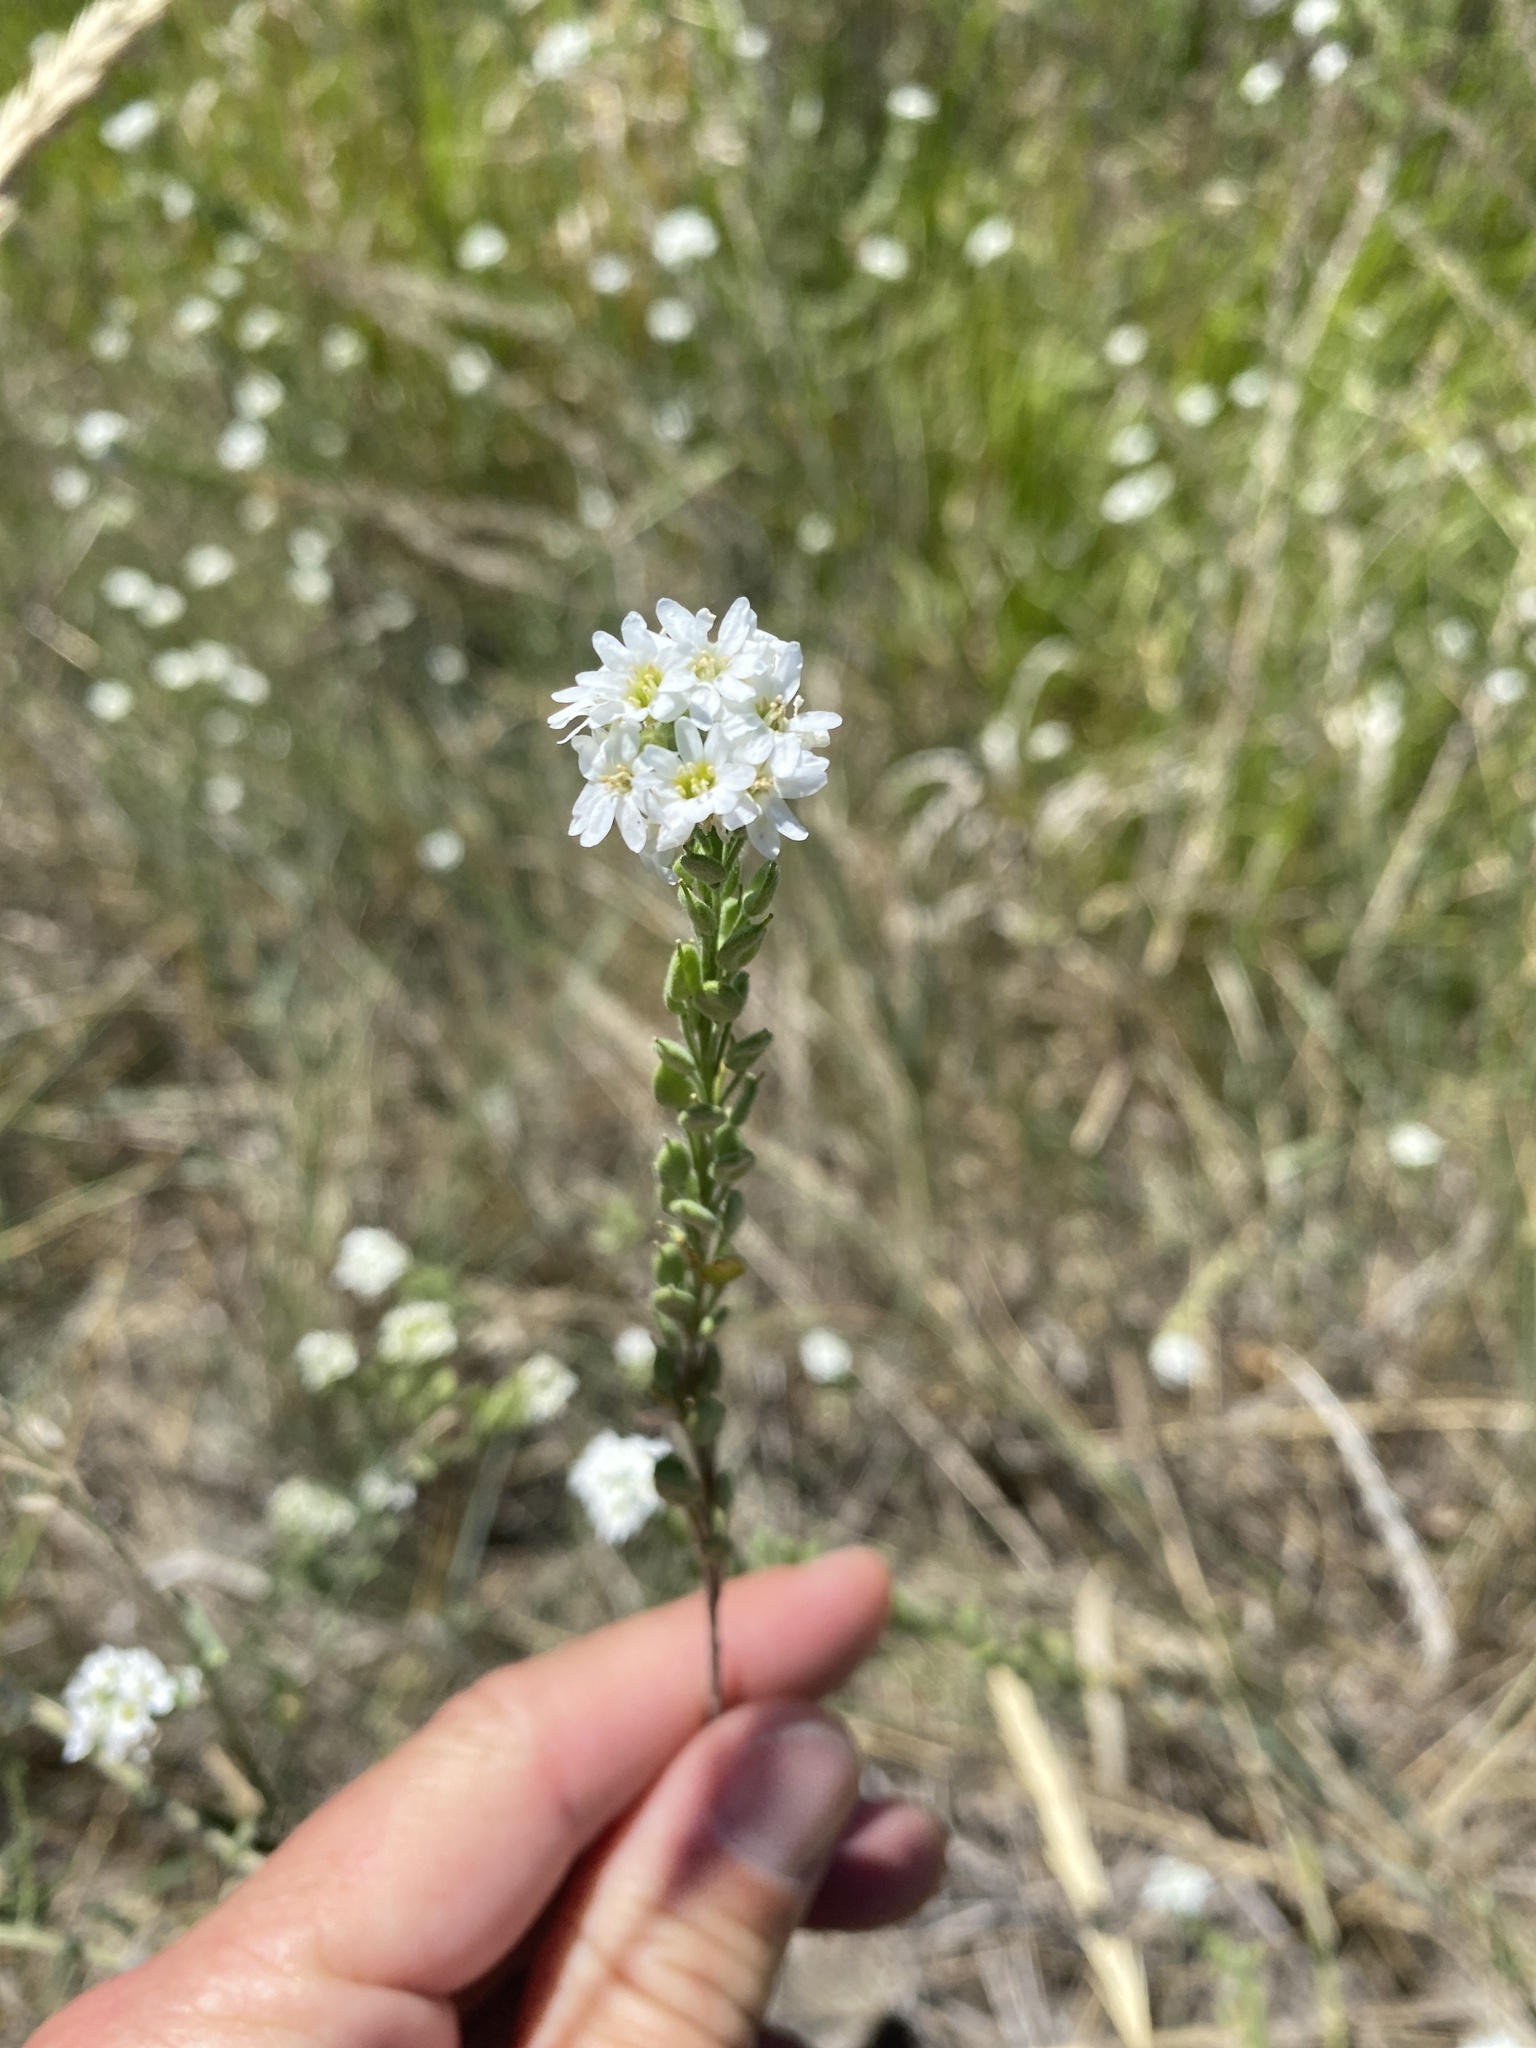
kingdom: Plantae
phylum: Tracheophyta
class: Magnoliopsida
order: Brassicales
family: Brassicaceae
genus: Berteroa
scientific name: Berteroa incana
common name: Hoary alison
